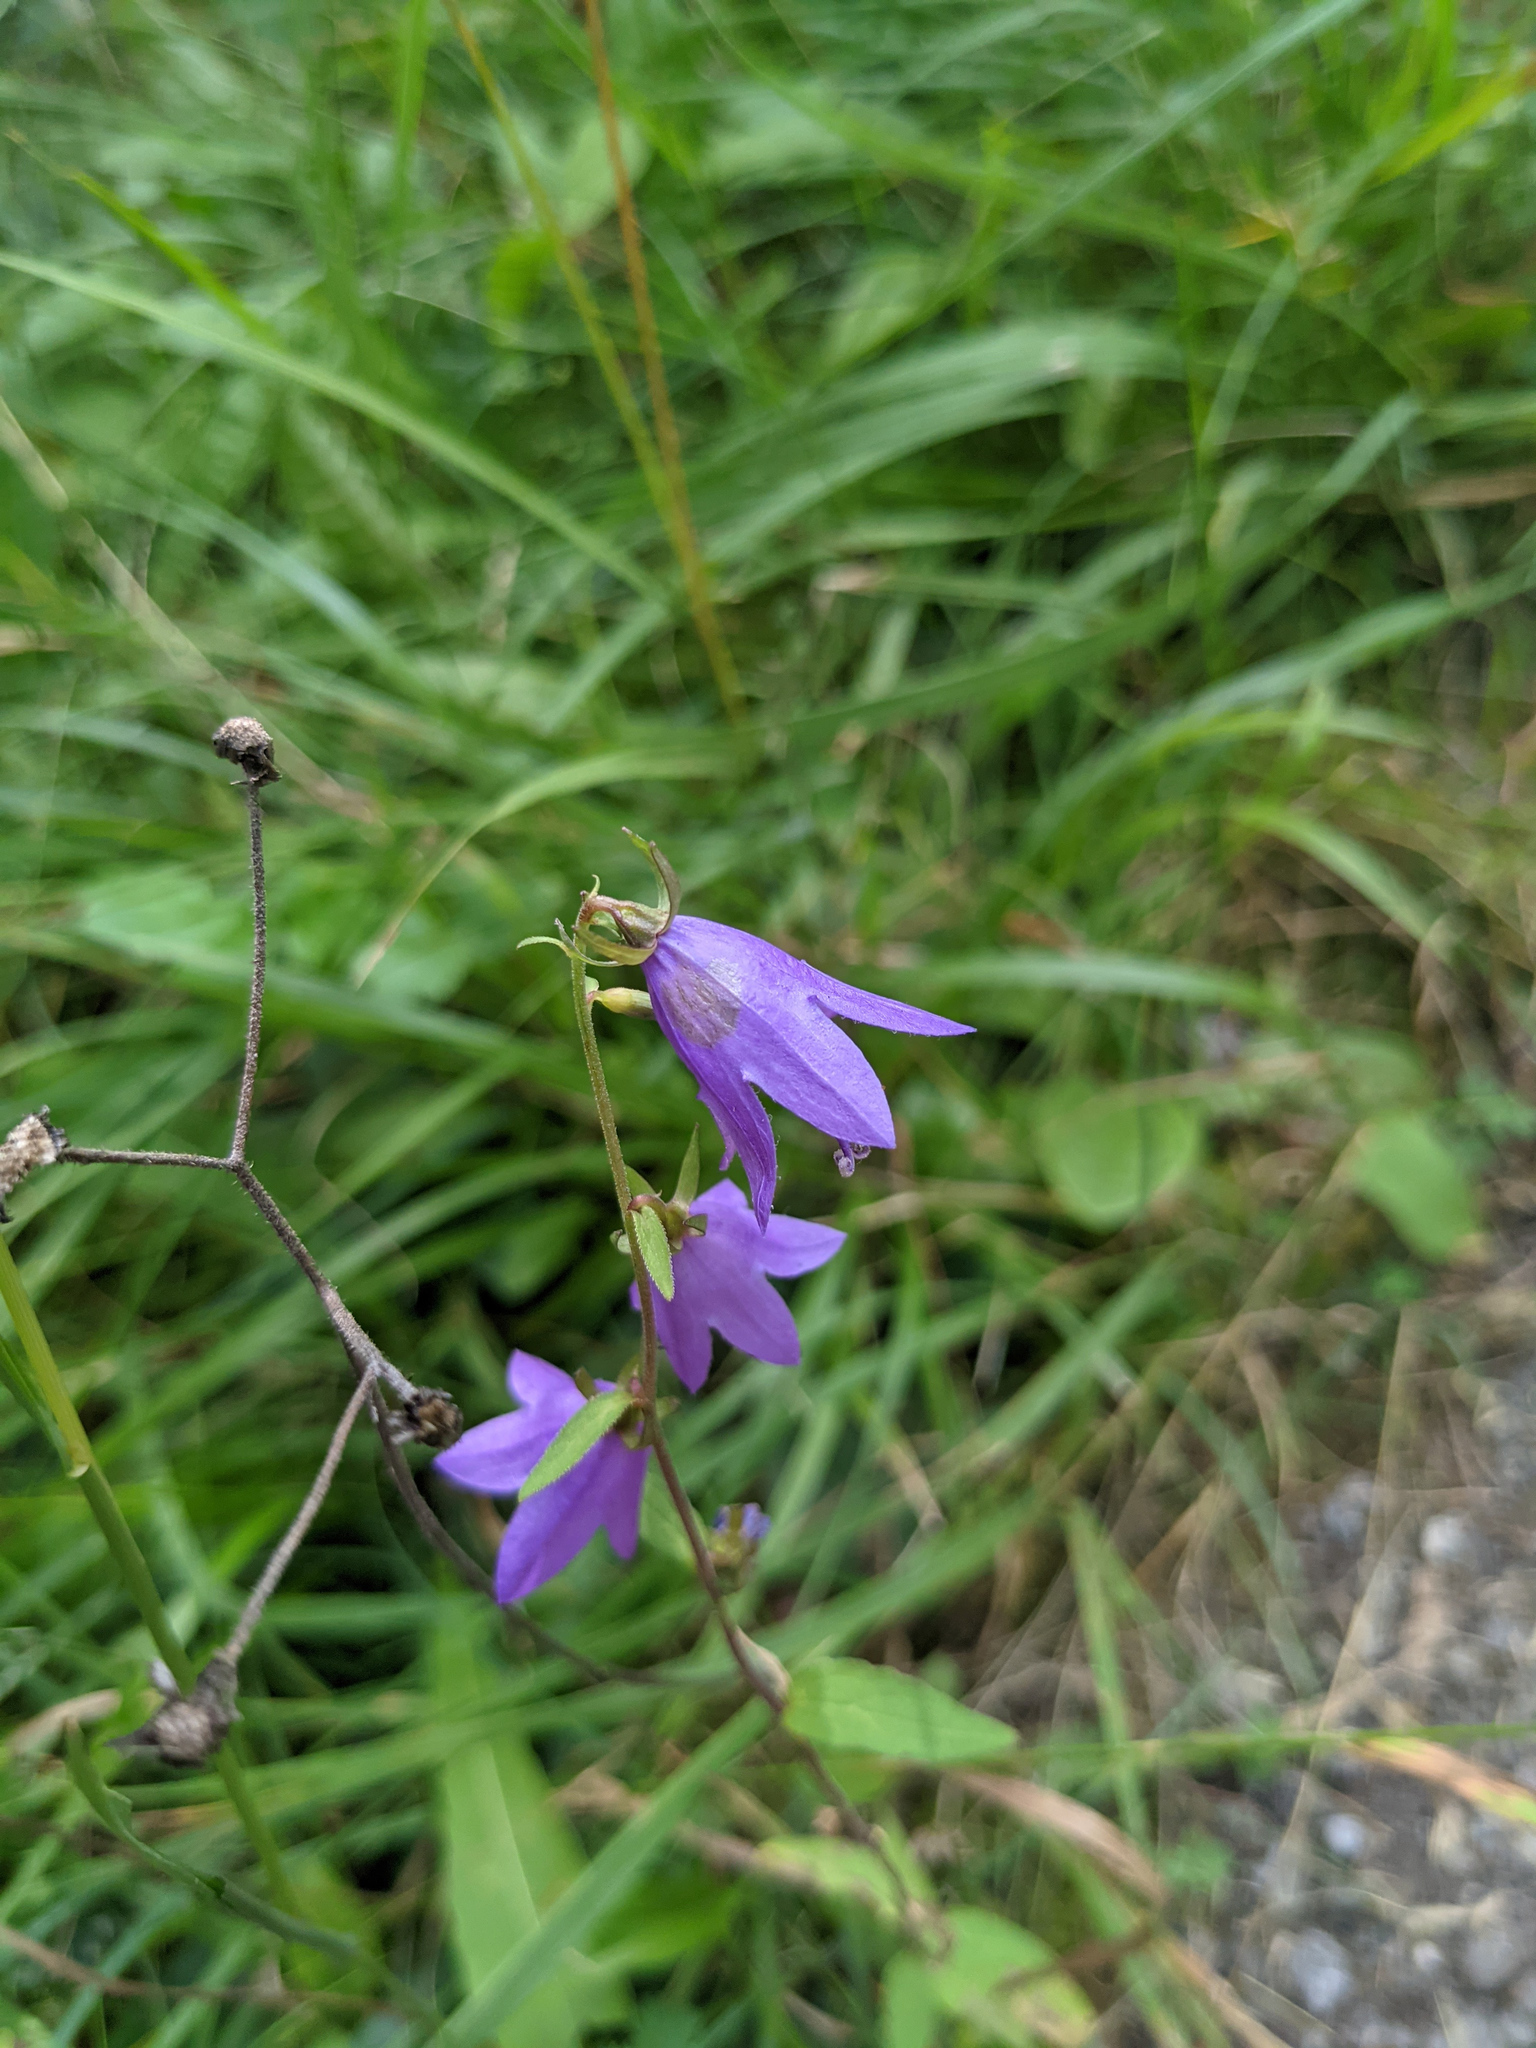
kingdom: Plantae
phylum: Tracheophyta
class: Magnoliopsida
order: Asterales
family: Campanulaceae
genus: Campanula
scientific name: Campanula rapunculoides
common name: Creeping bellflower
